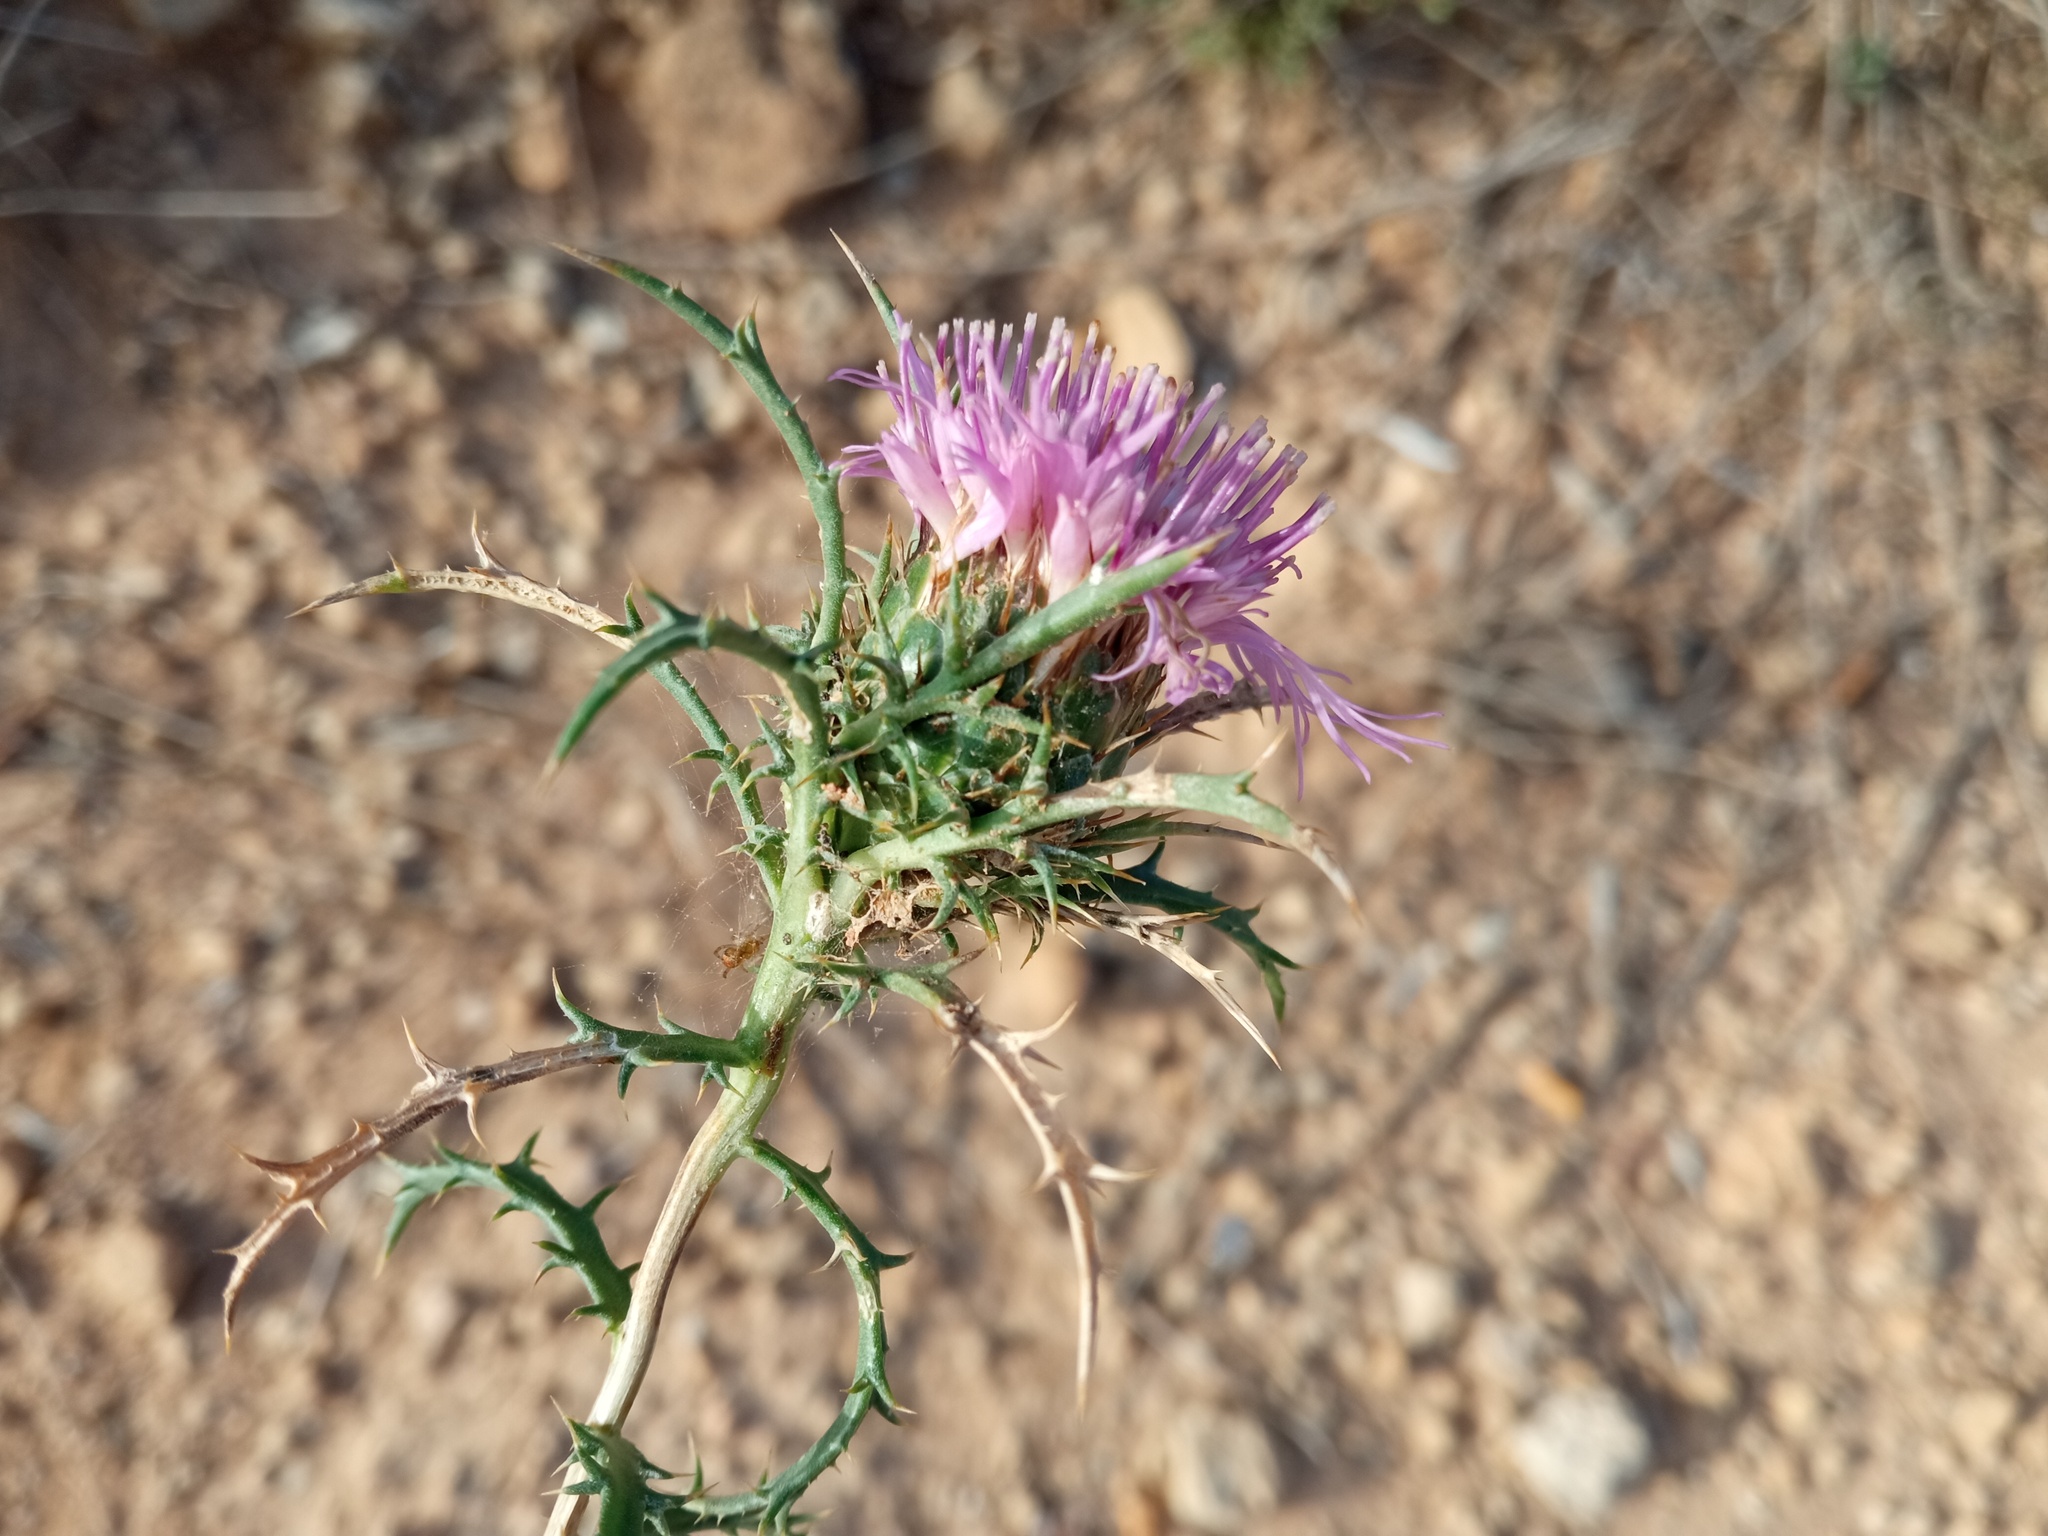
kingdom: Plantae
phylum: Tracheophyta
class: Magnoliopsida
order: Asterales
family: Asteraceae
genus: Atractylis
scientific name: Atractylis humilis
